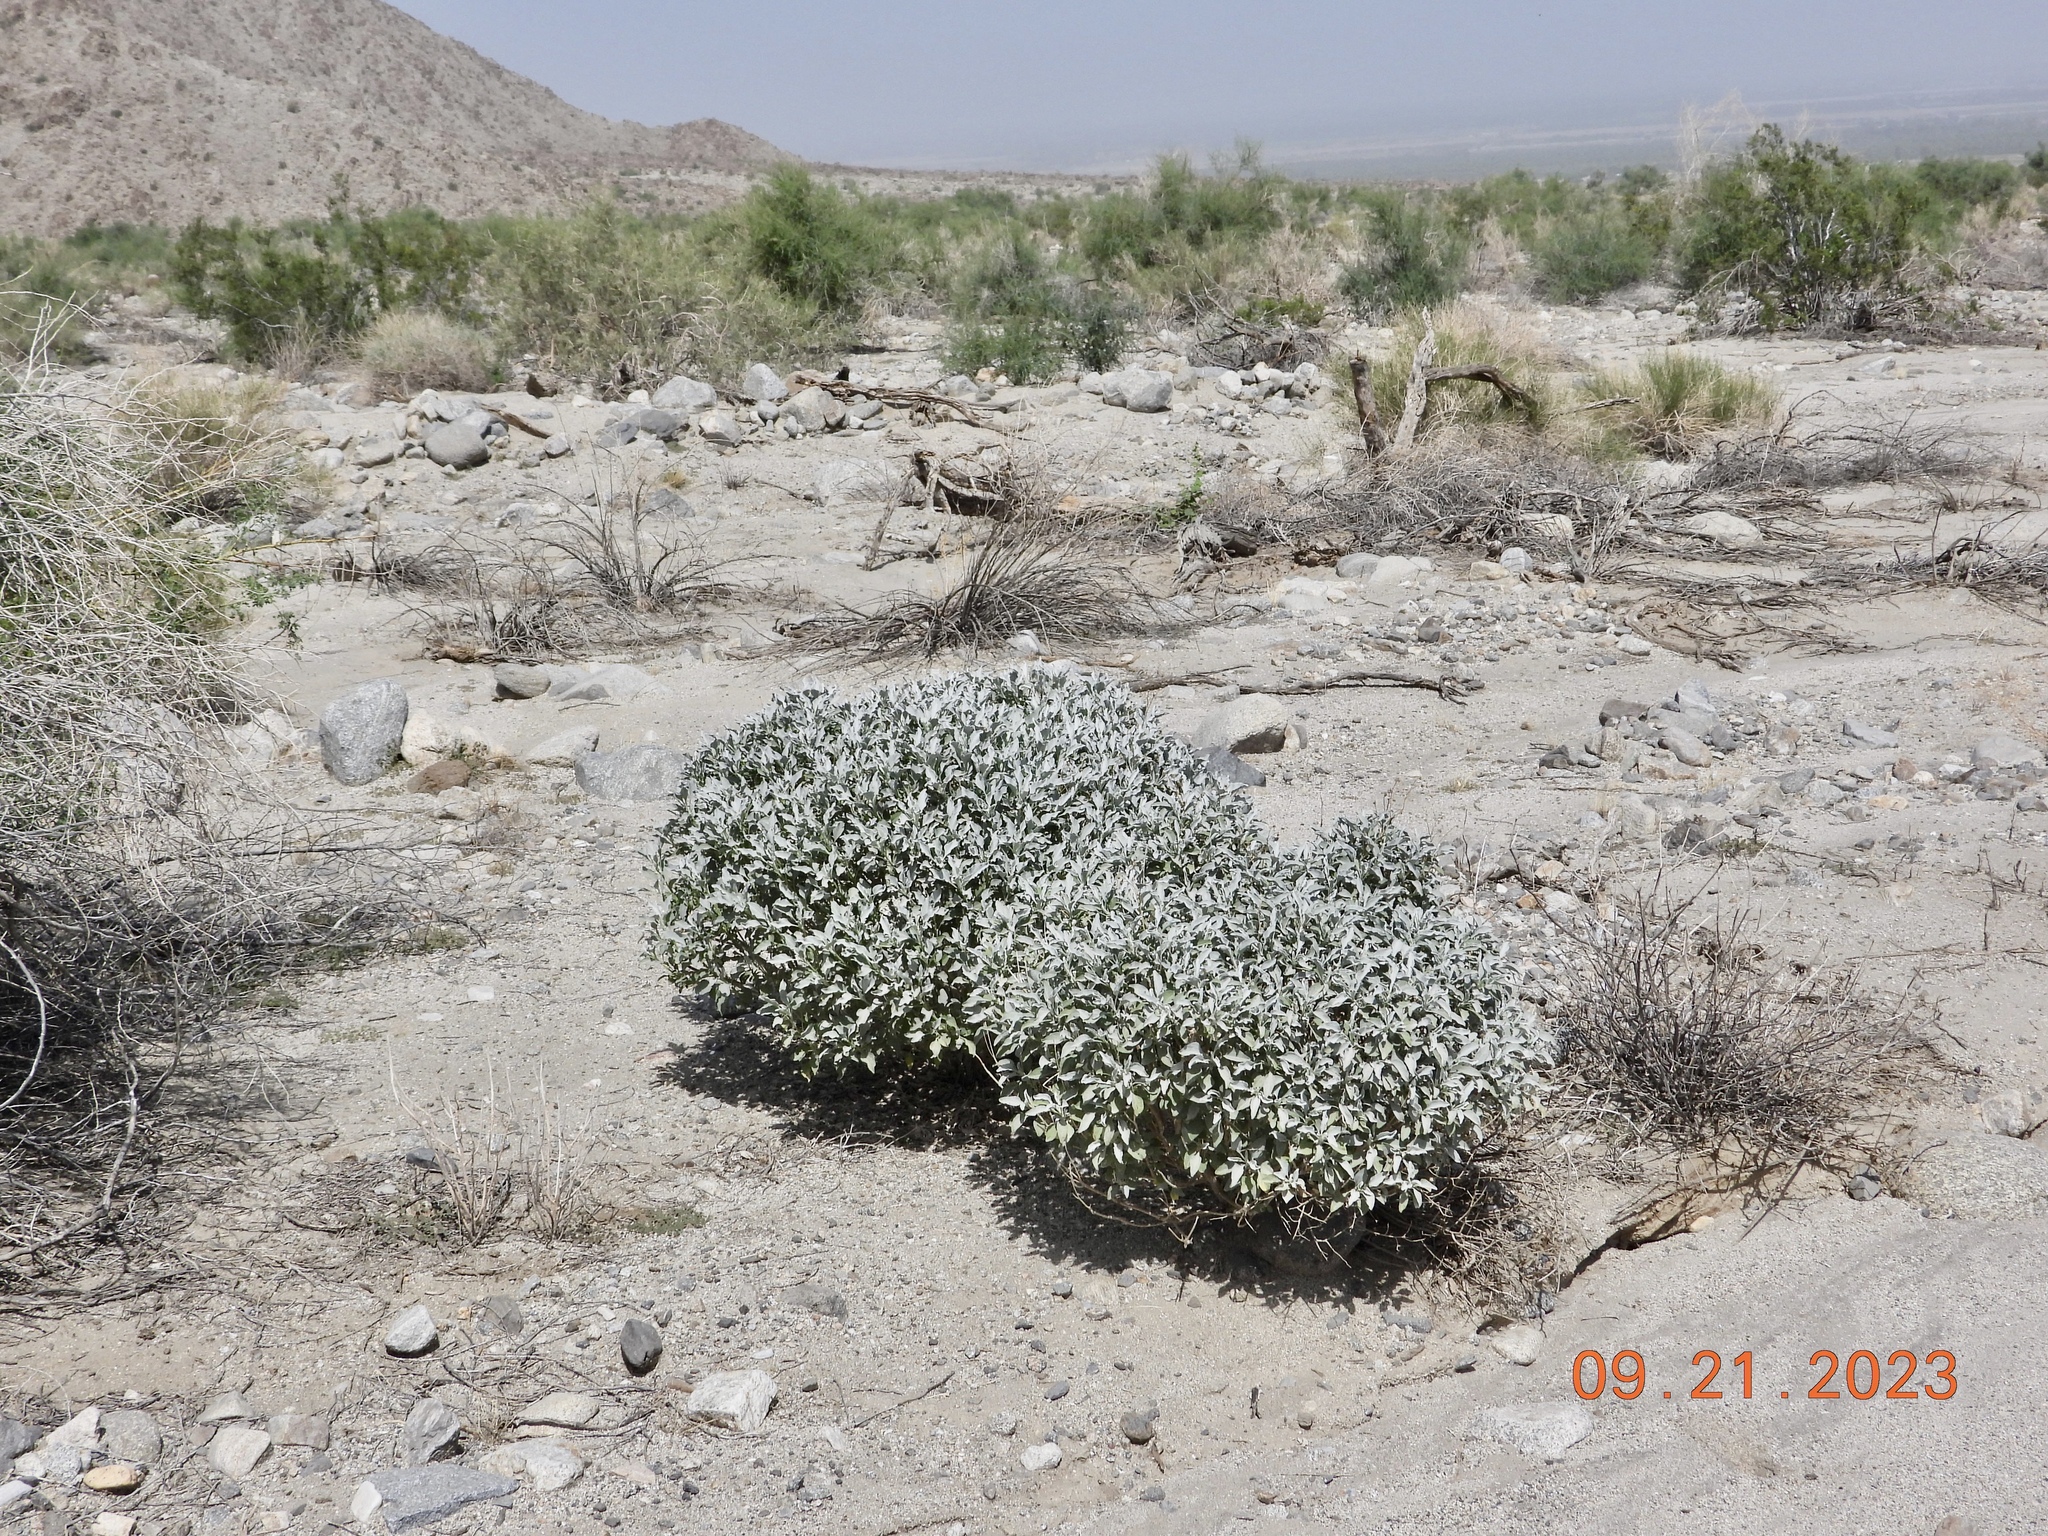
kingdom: Plantae
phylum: Tracheophyta
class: Magnoliopsida
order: Asterales
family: Asteraceae
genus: Encelia
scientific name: Encelia farinosa
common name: Brittlebush
